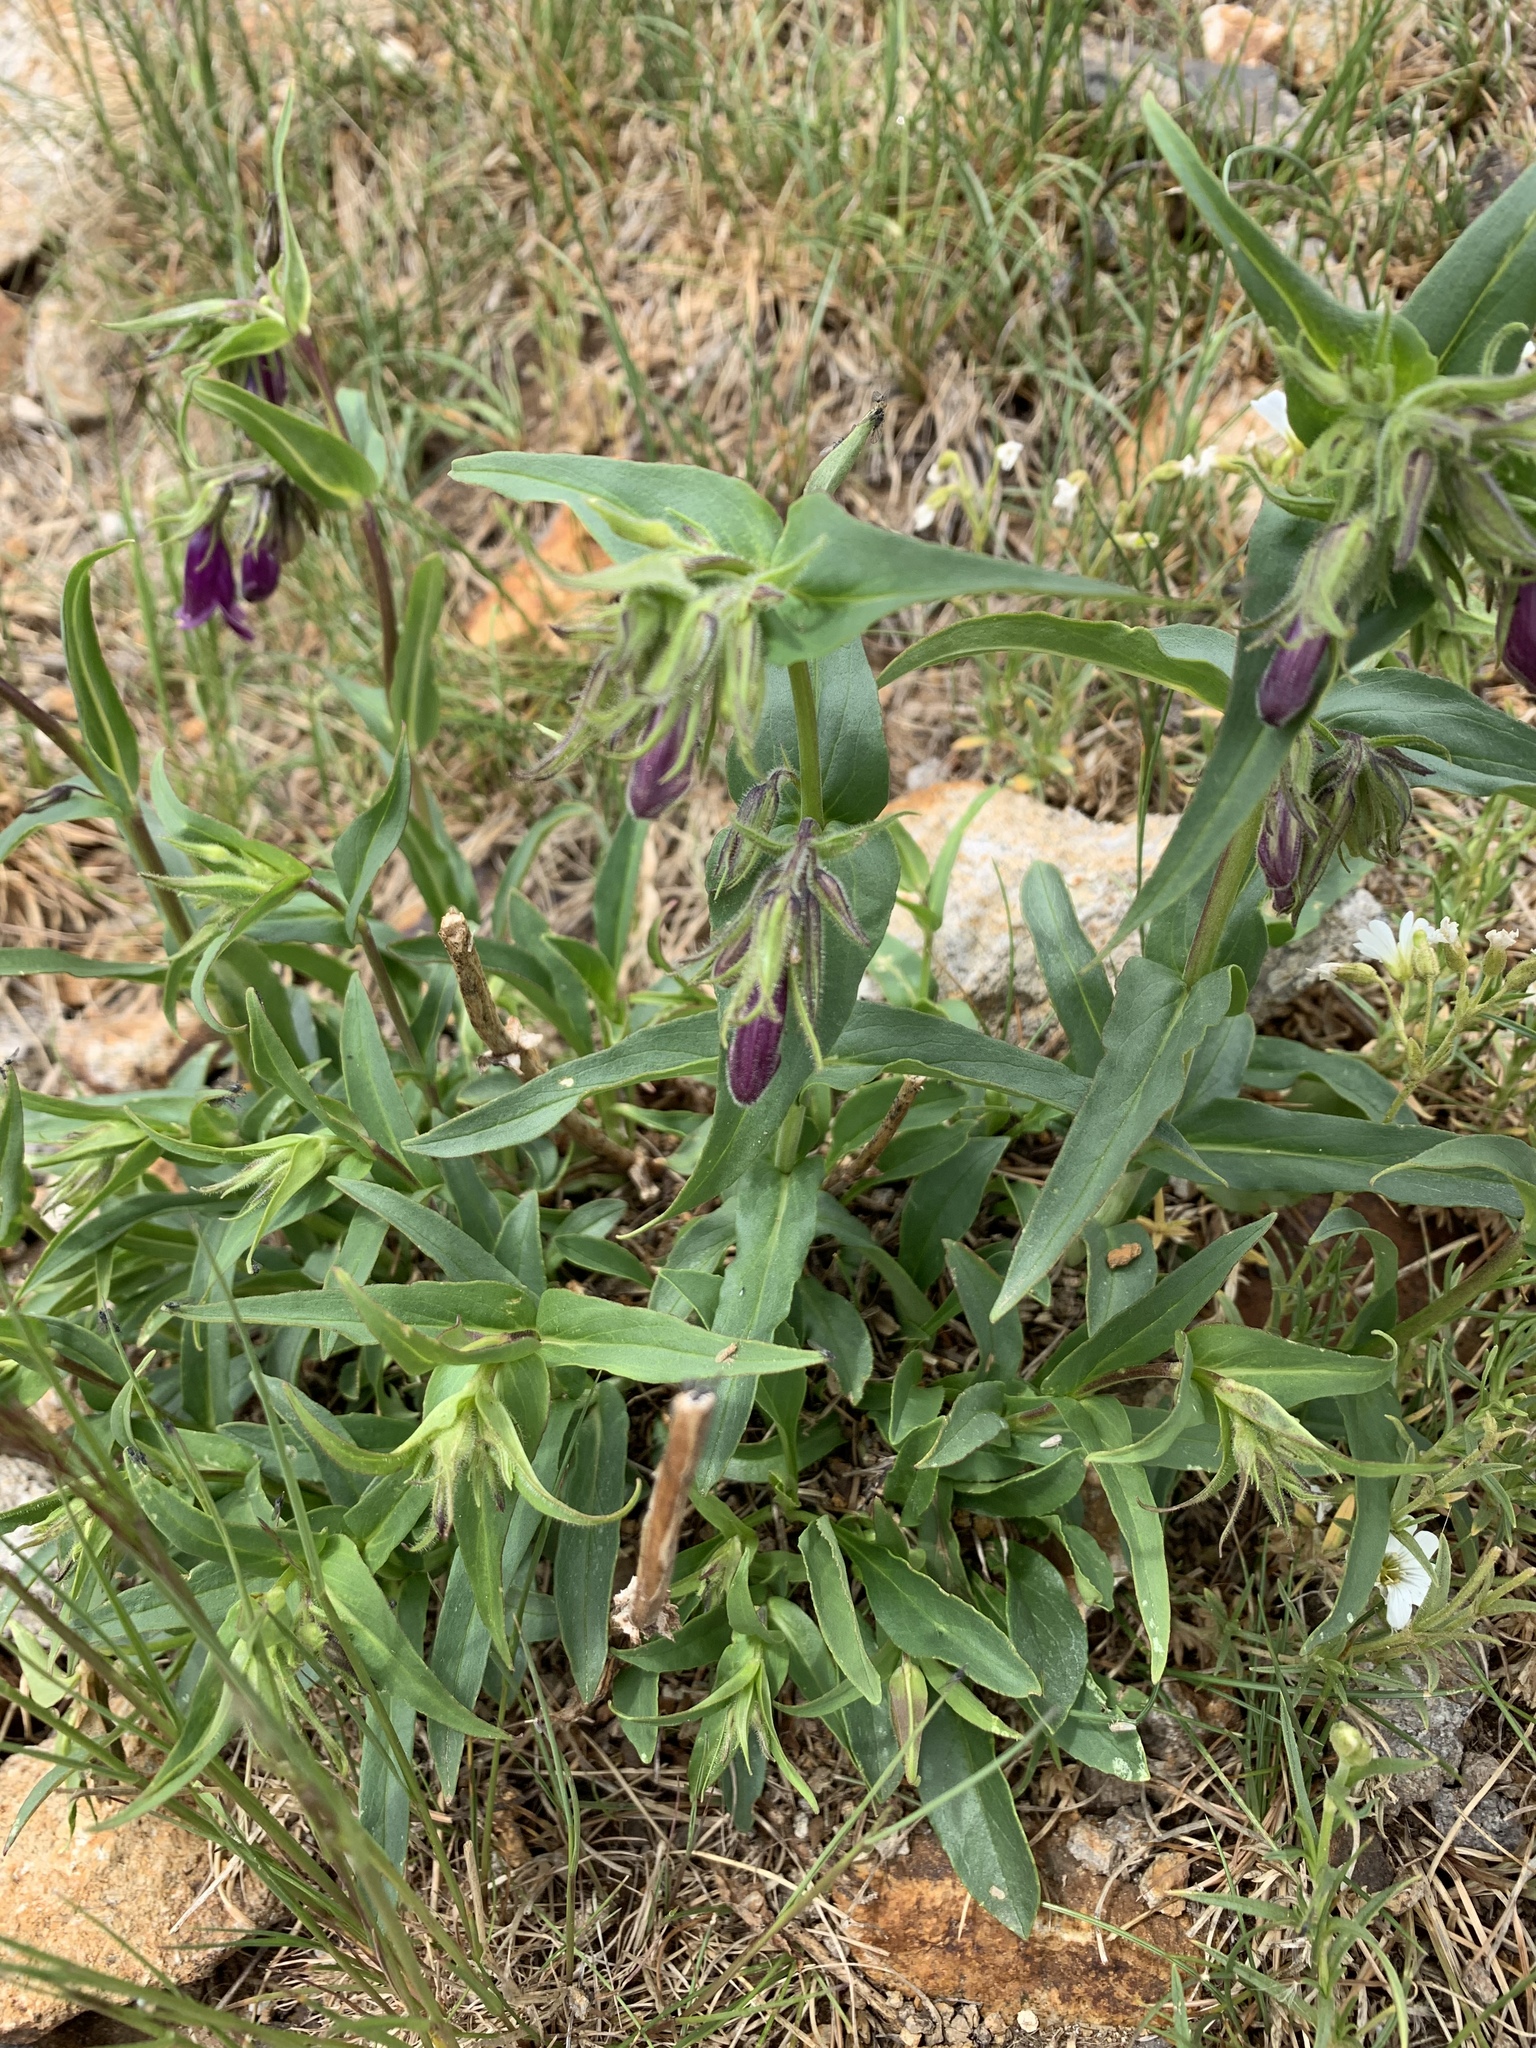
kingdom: Plantae
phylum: Tracheophyta
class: Magnoliopsida
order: Lamiales
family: Plantaginaceae
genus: Penstemon
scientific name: Penstemon whippleanus
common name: Whipple's penstemon
